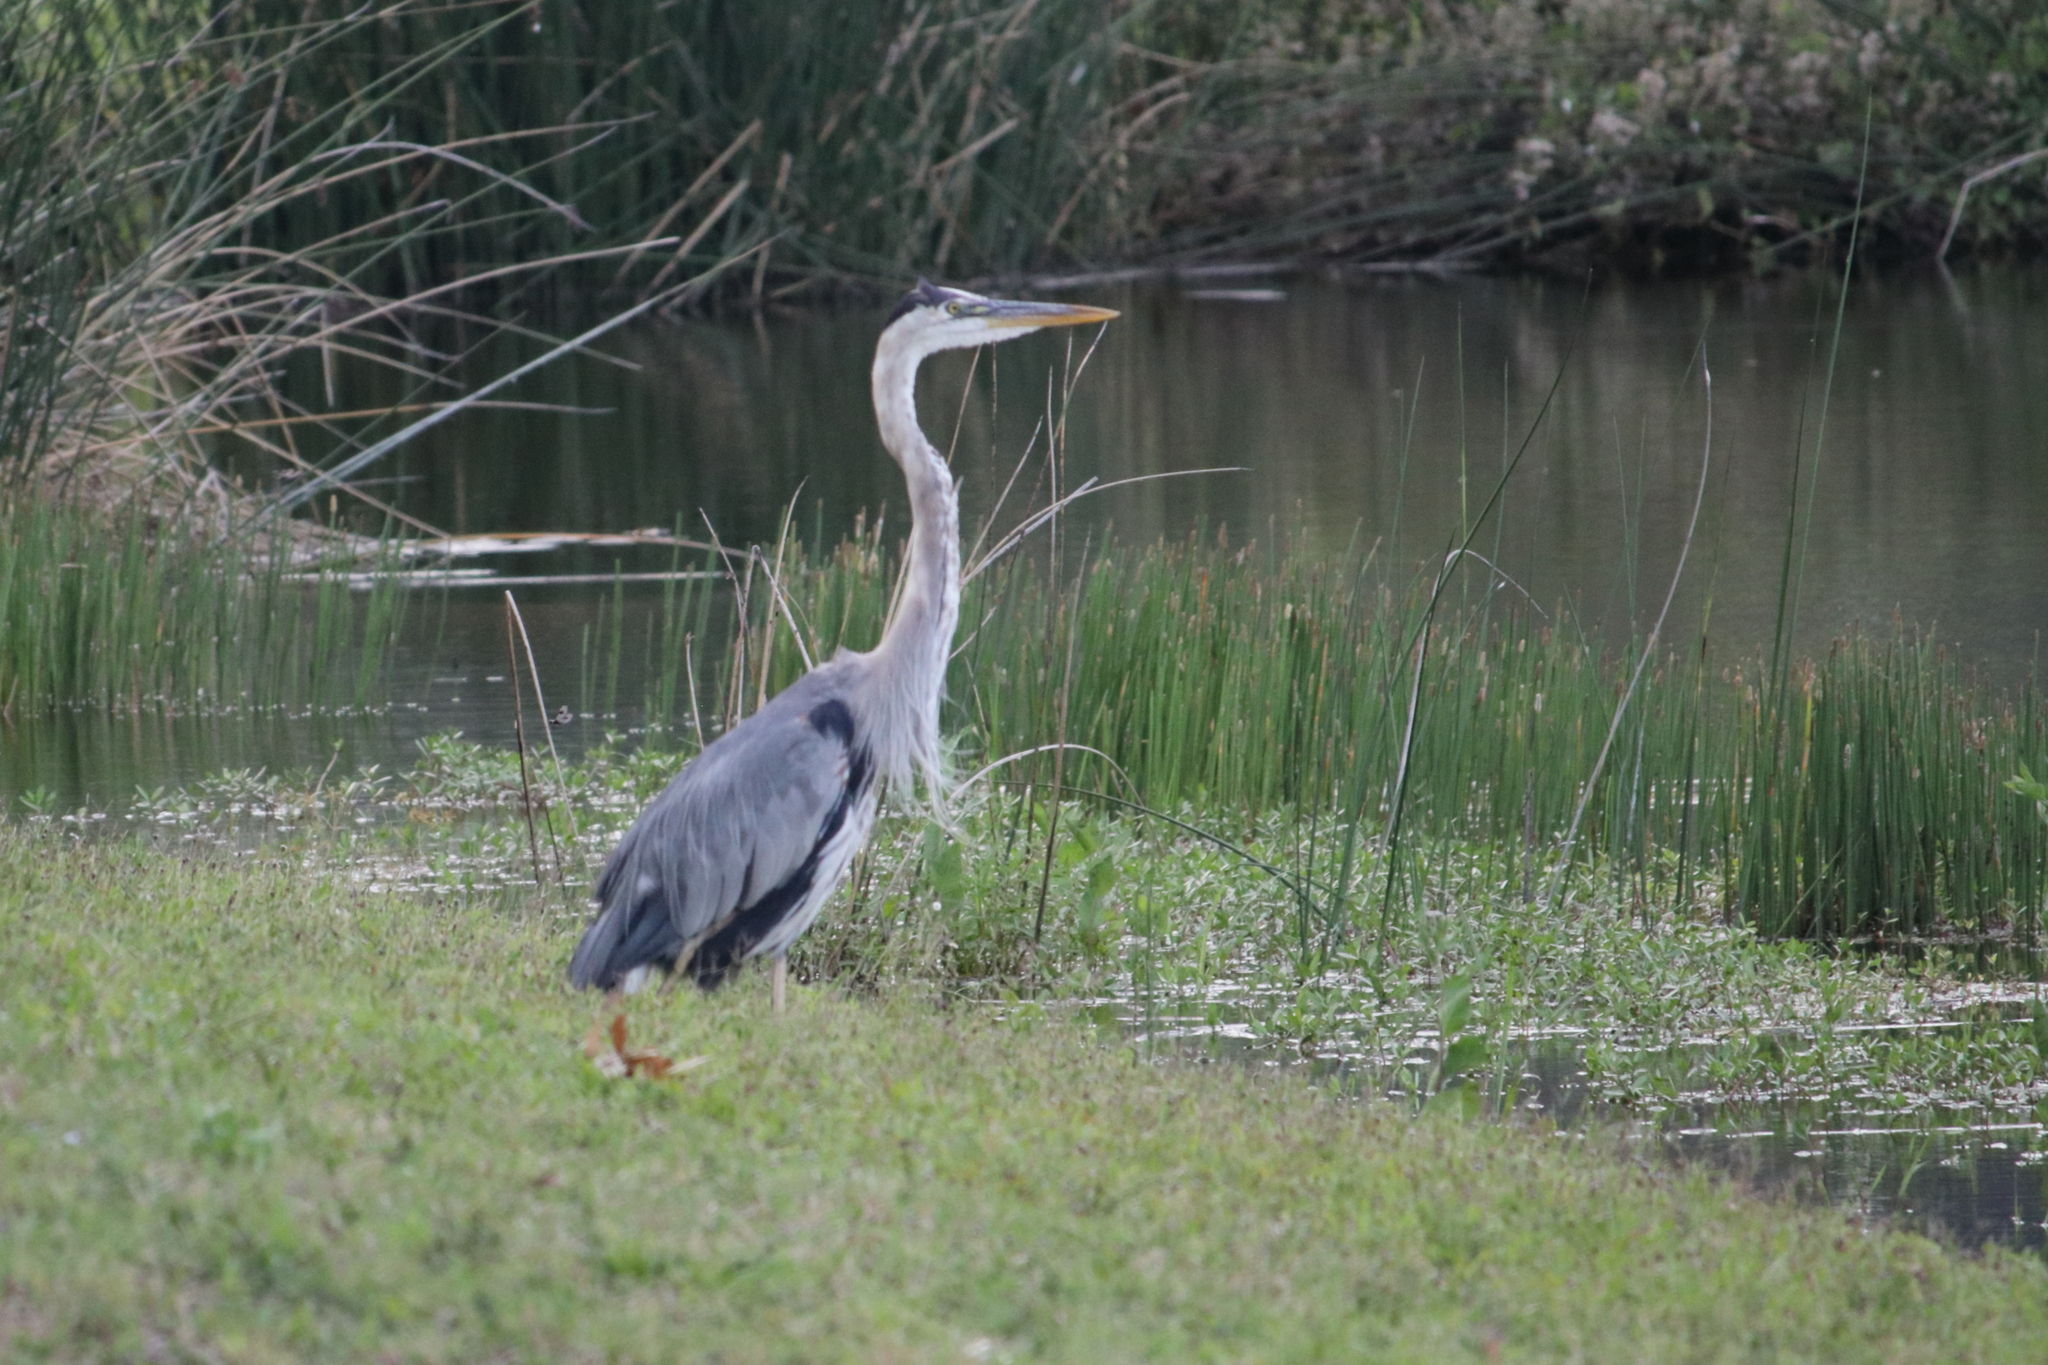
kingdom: Animalia
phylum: Chordata
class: Aves
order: Pelecaniformes
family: Ardeidae
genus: Ardea
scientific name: Ardea herodias
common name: Great blue heron
